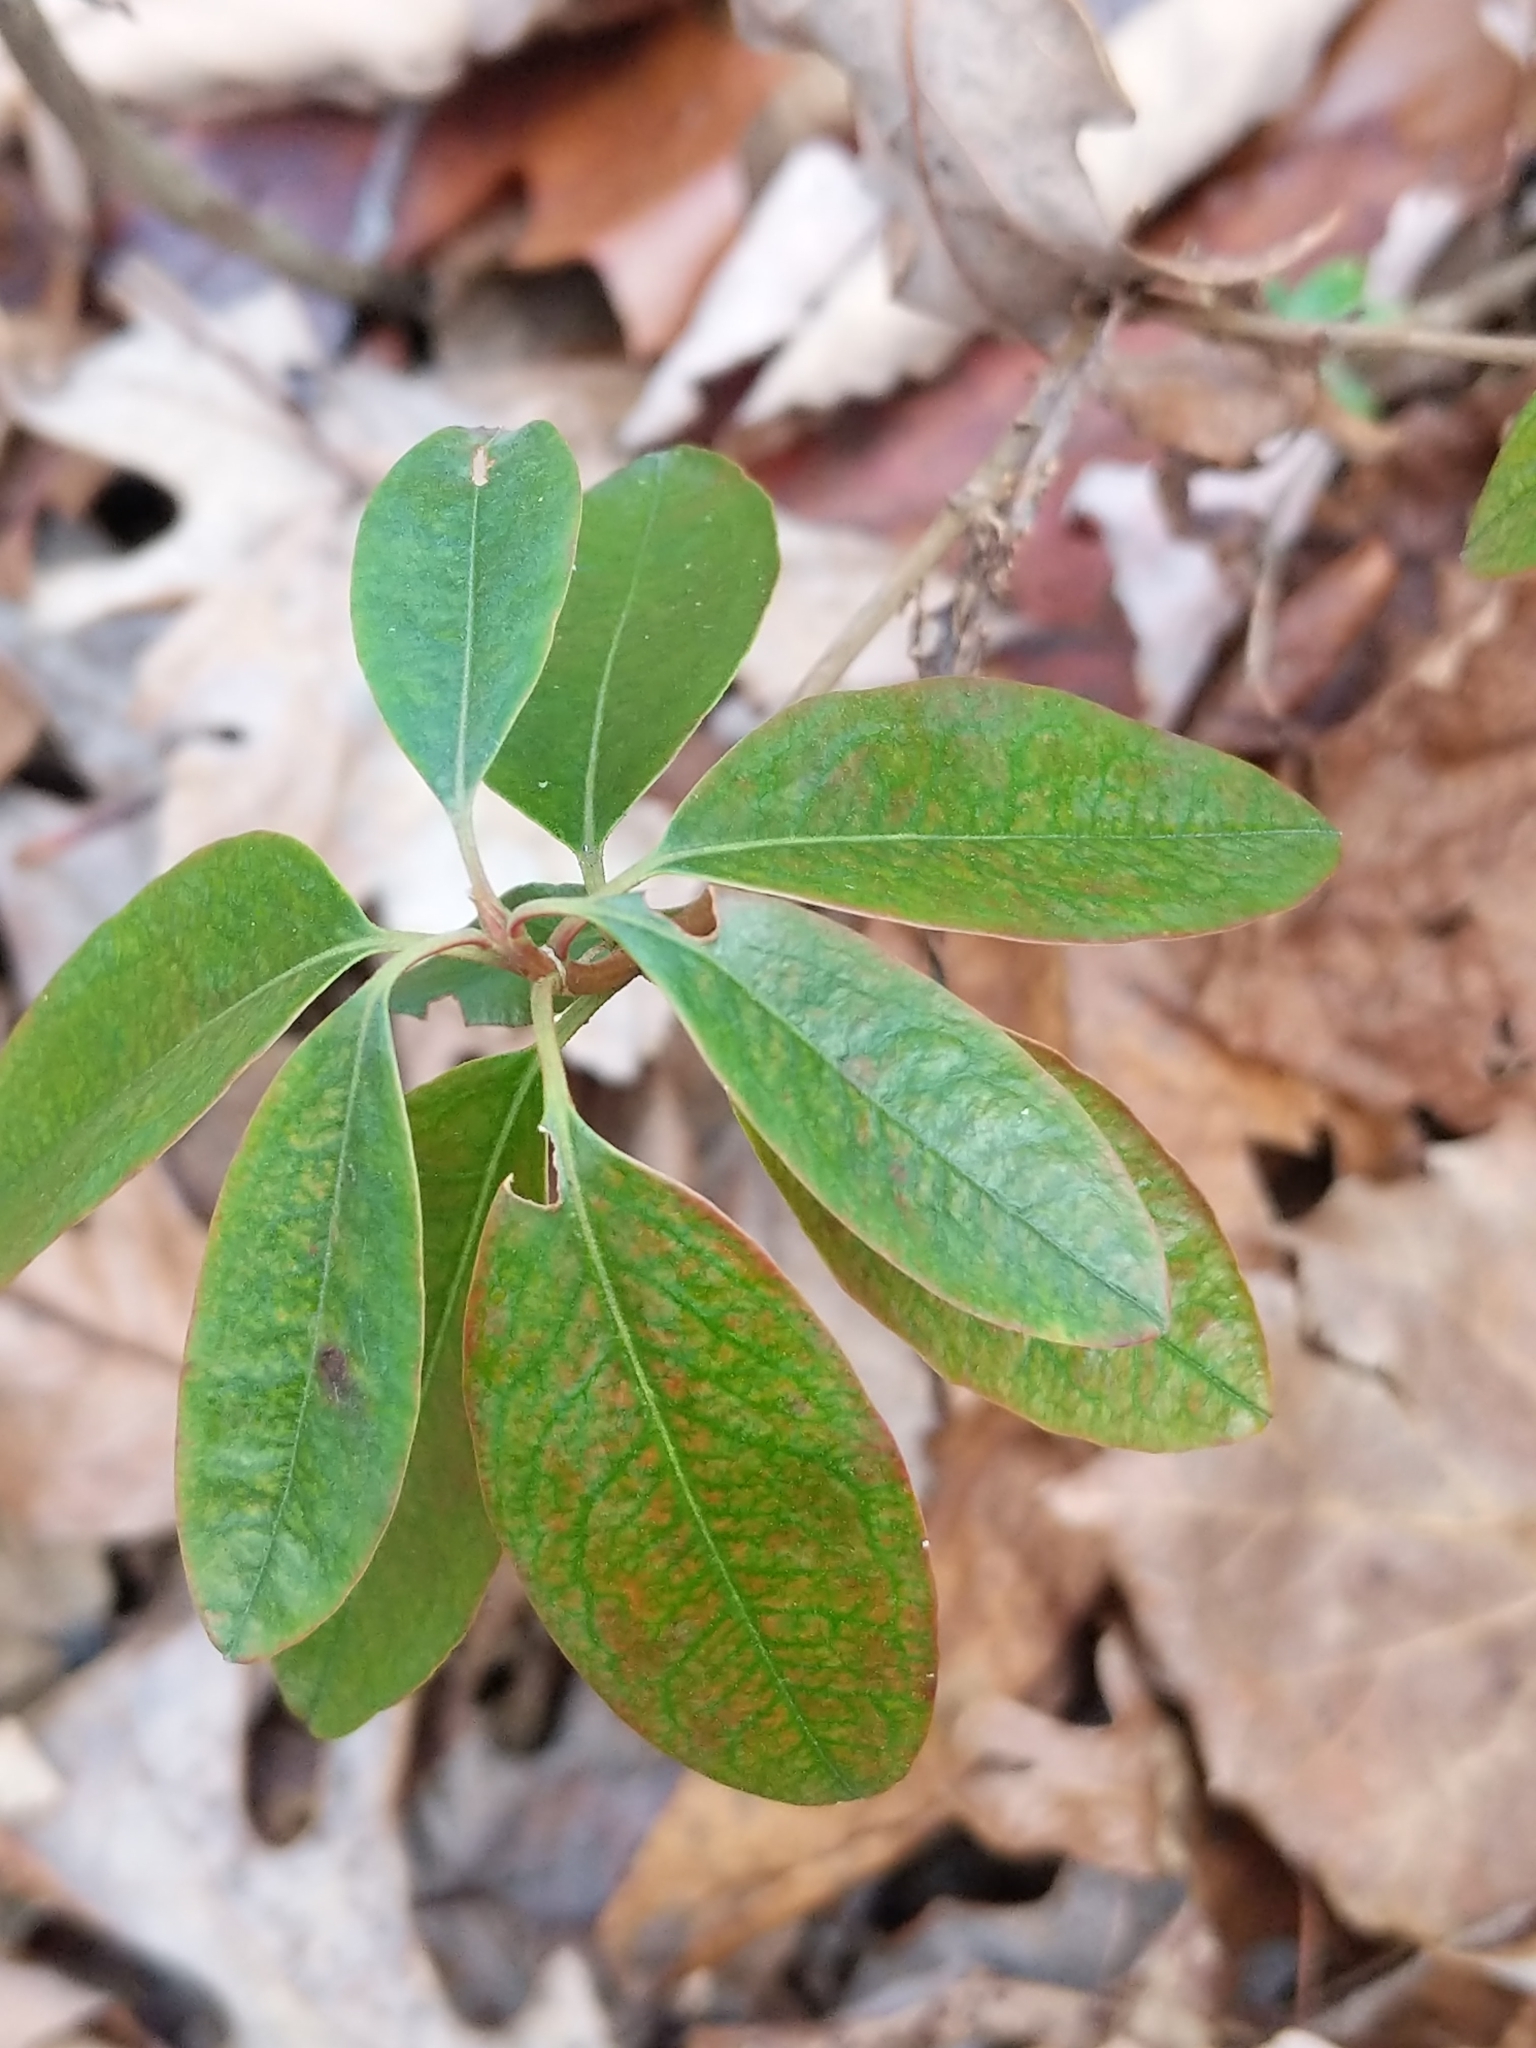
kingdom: Plantae
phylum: Tracheophyta
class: Magnoliopsida
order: Ericales
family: Ericaceae
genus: Kalmia
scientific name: Kalmia angustifolia
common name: Sheep-laurel
